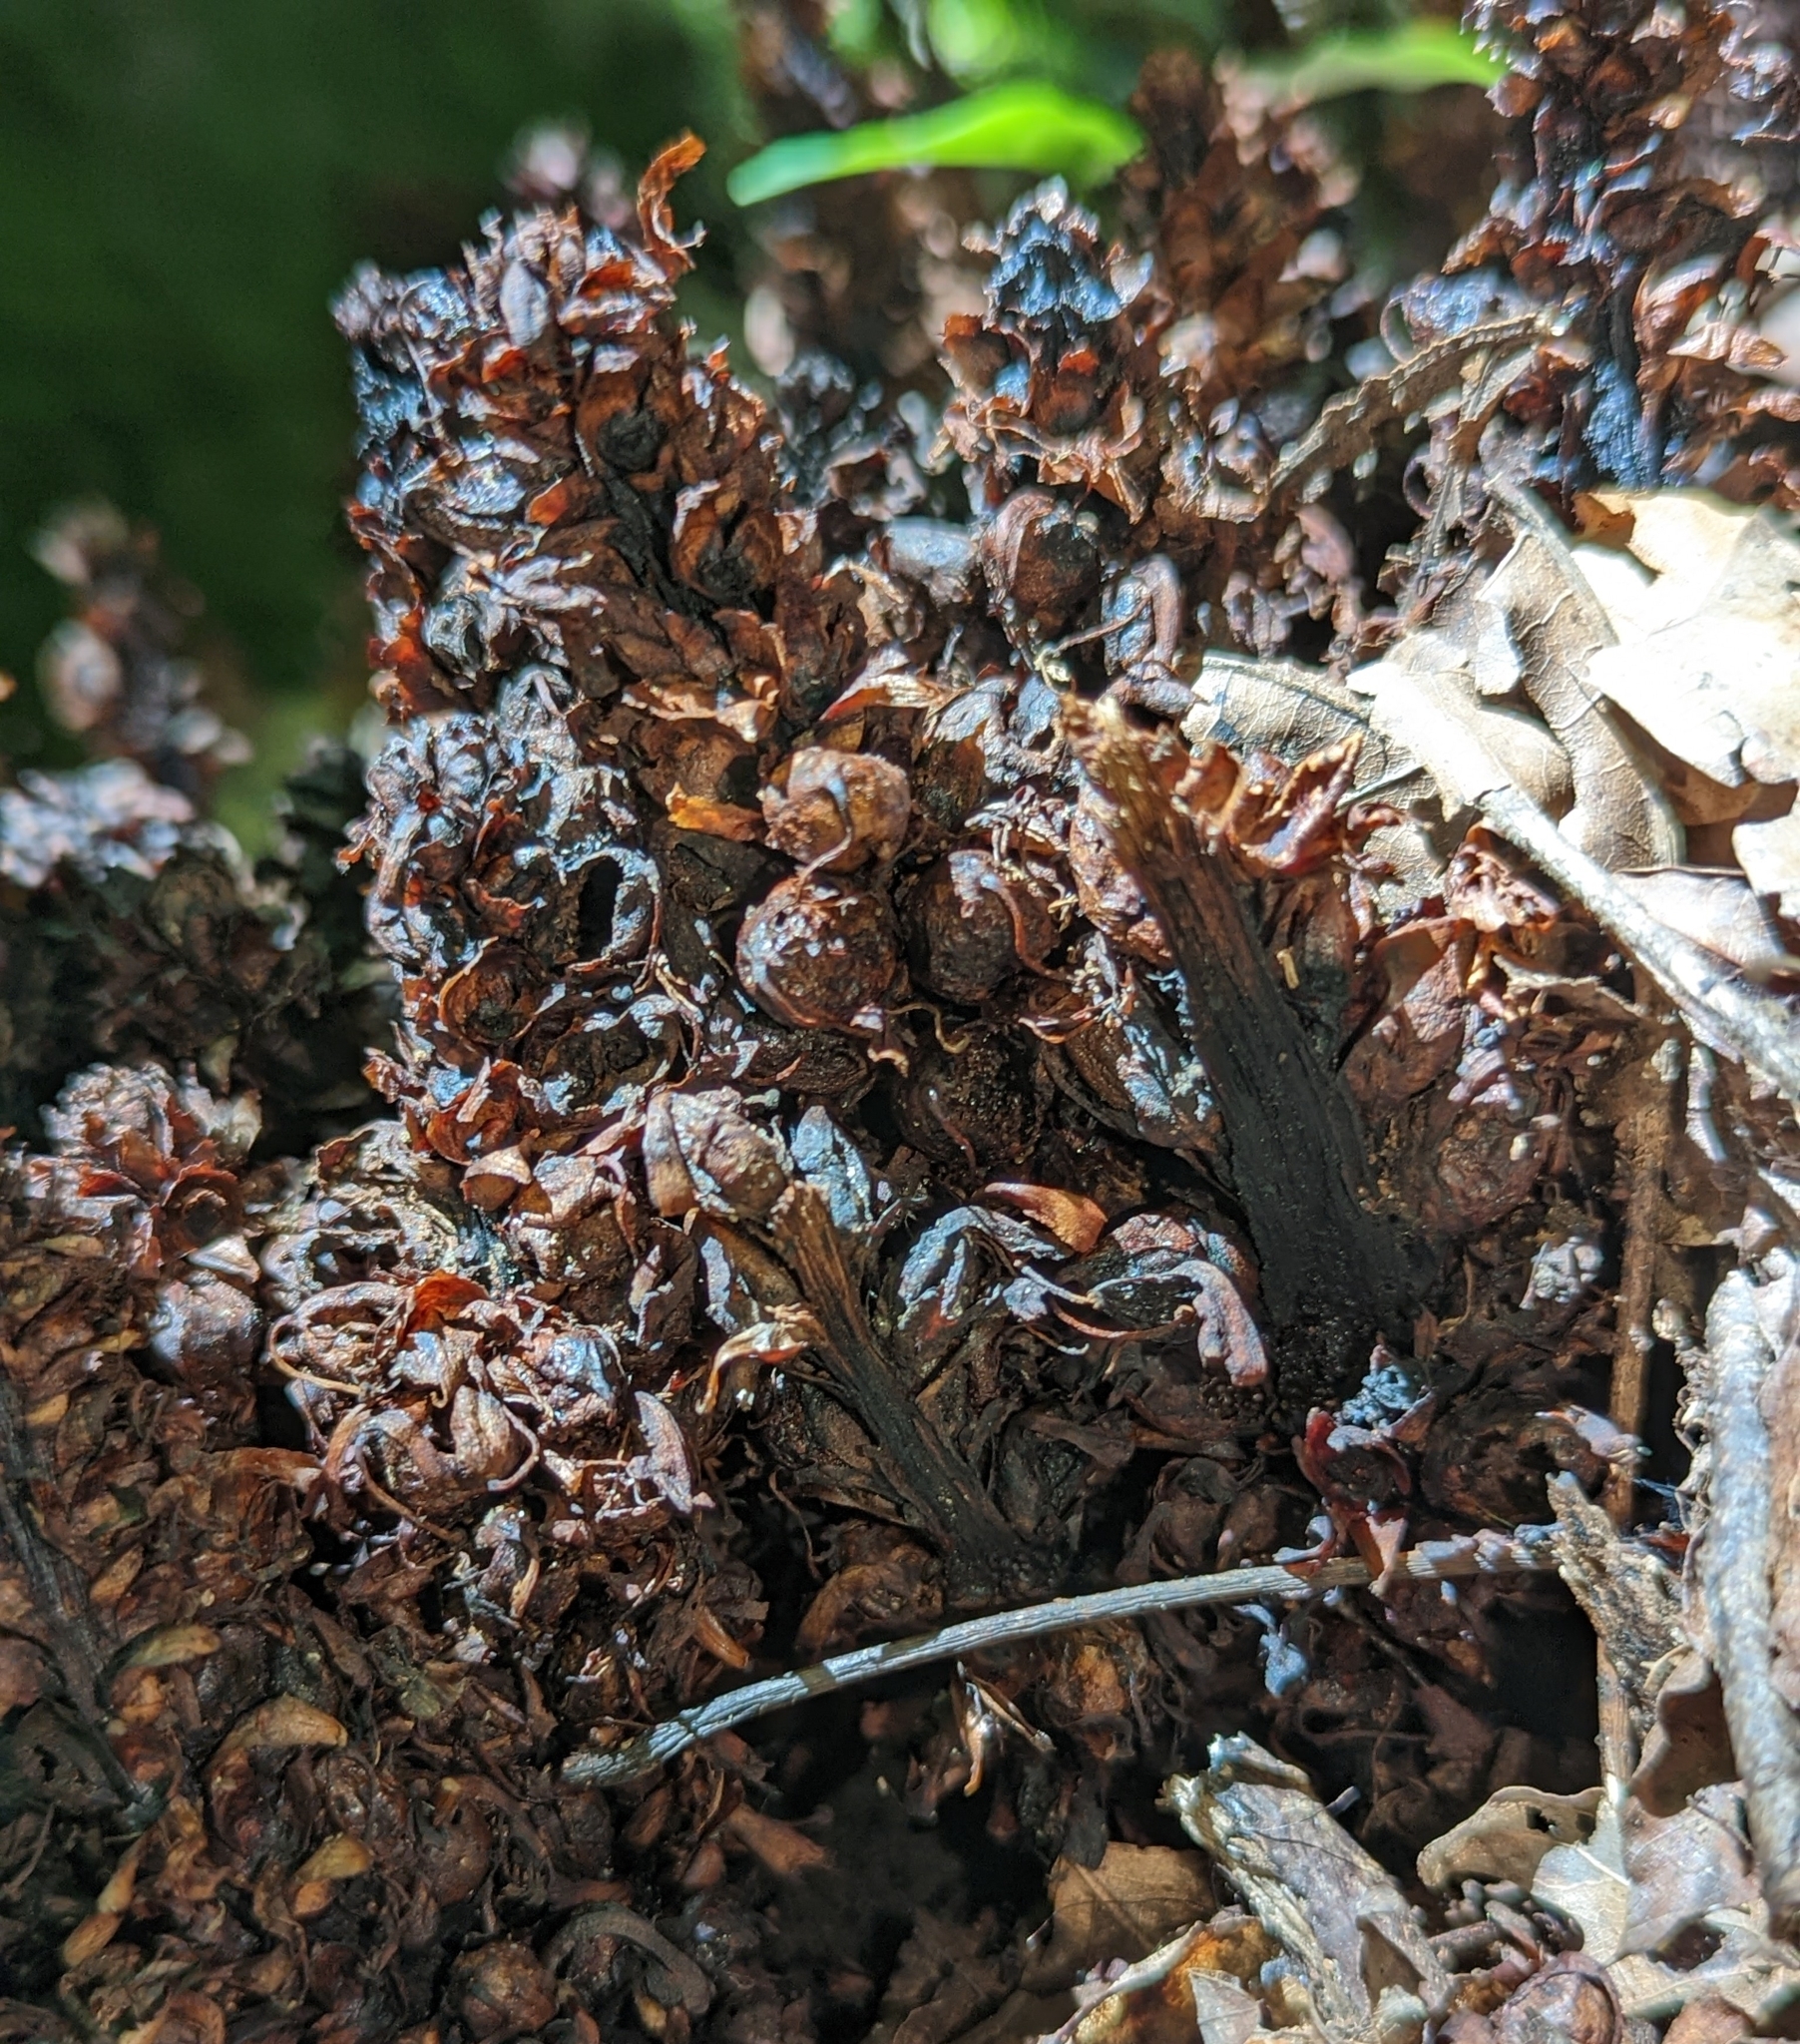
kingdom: Plantae
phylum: Tracheophyta
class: Magnoliopsida
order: Lamiales
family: Orobanchaceae
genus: Conopholis
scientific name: Conopholis americana
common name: American cancer-root
